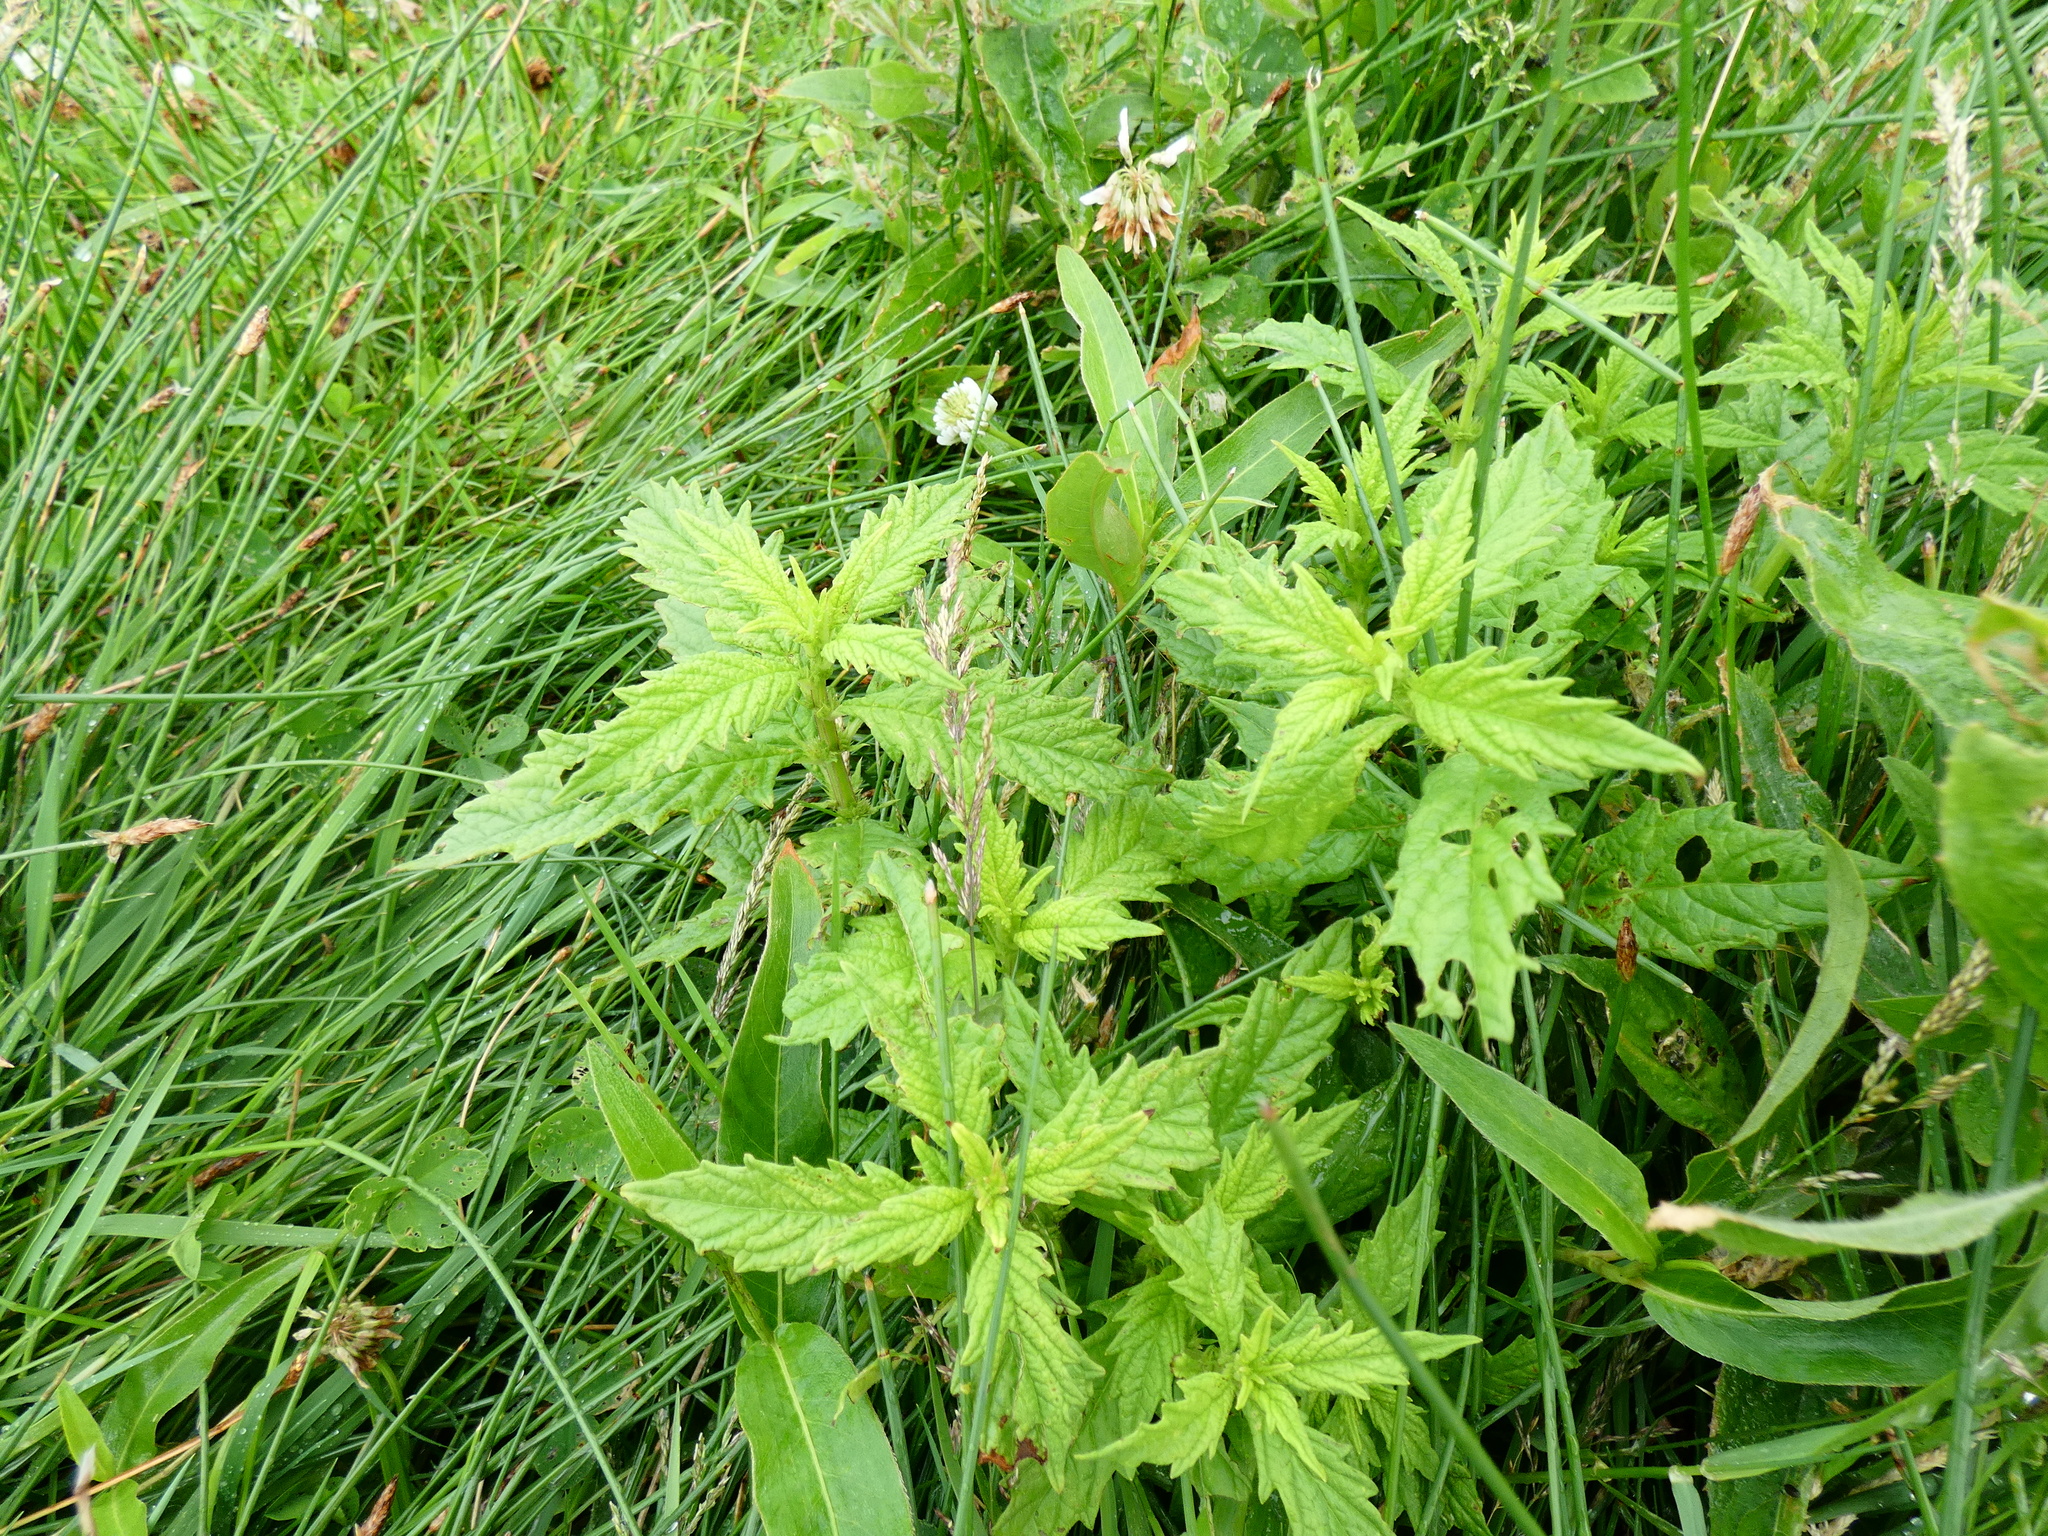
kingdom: Plantae
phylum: Tracheophyta
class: Magnoliopsida
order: Lamiales
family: Lamiaceae
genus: Lycopus
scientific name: Lycopus europaeus
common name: European bugleweed
